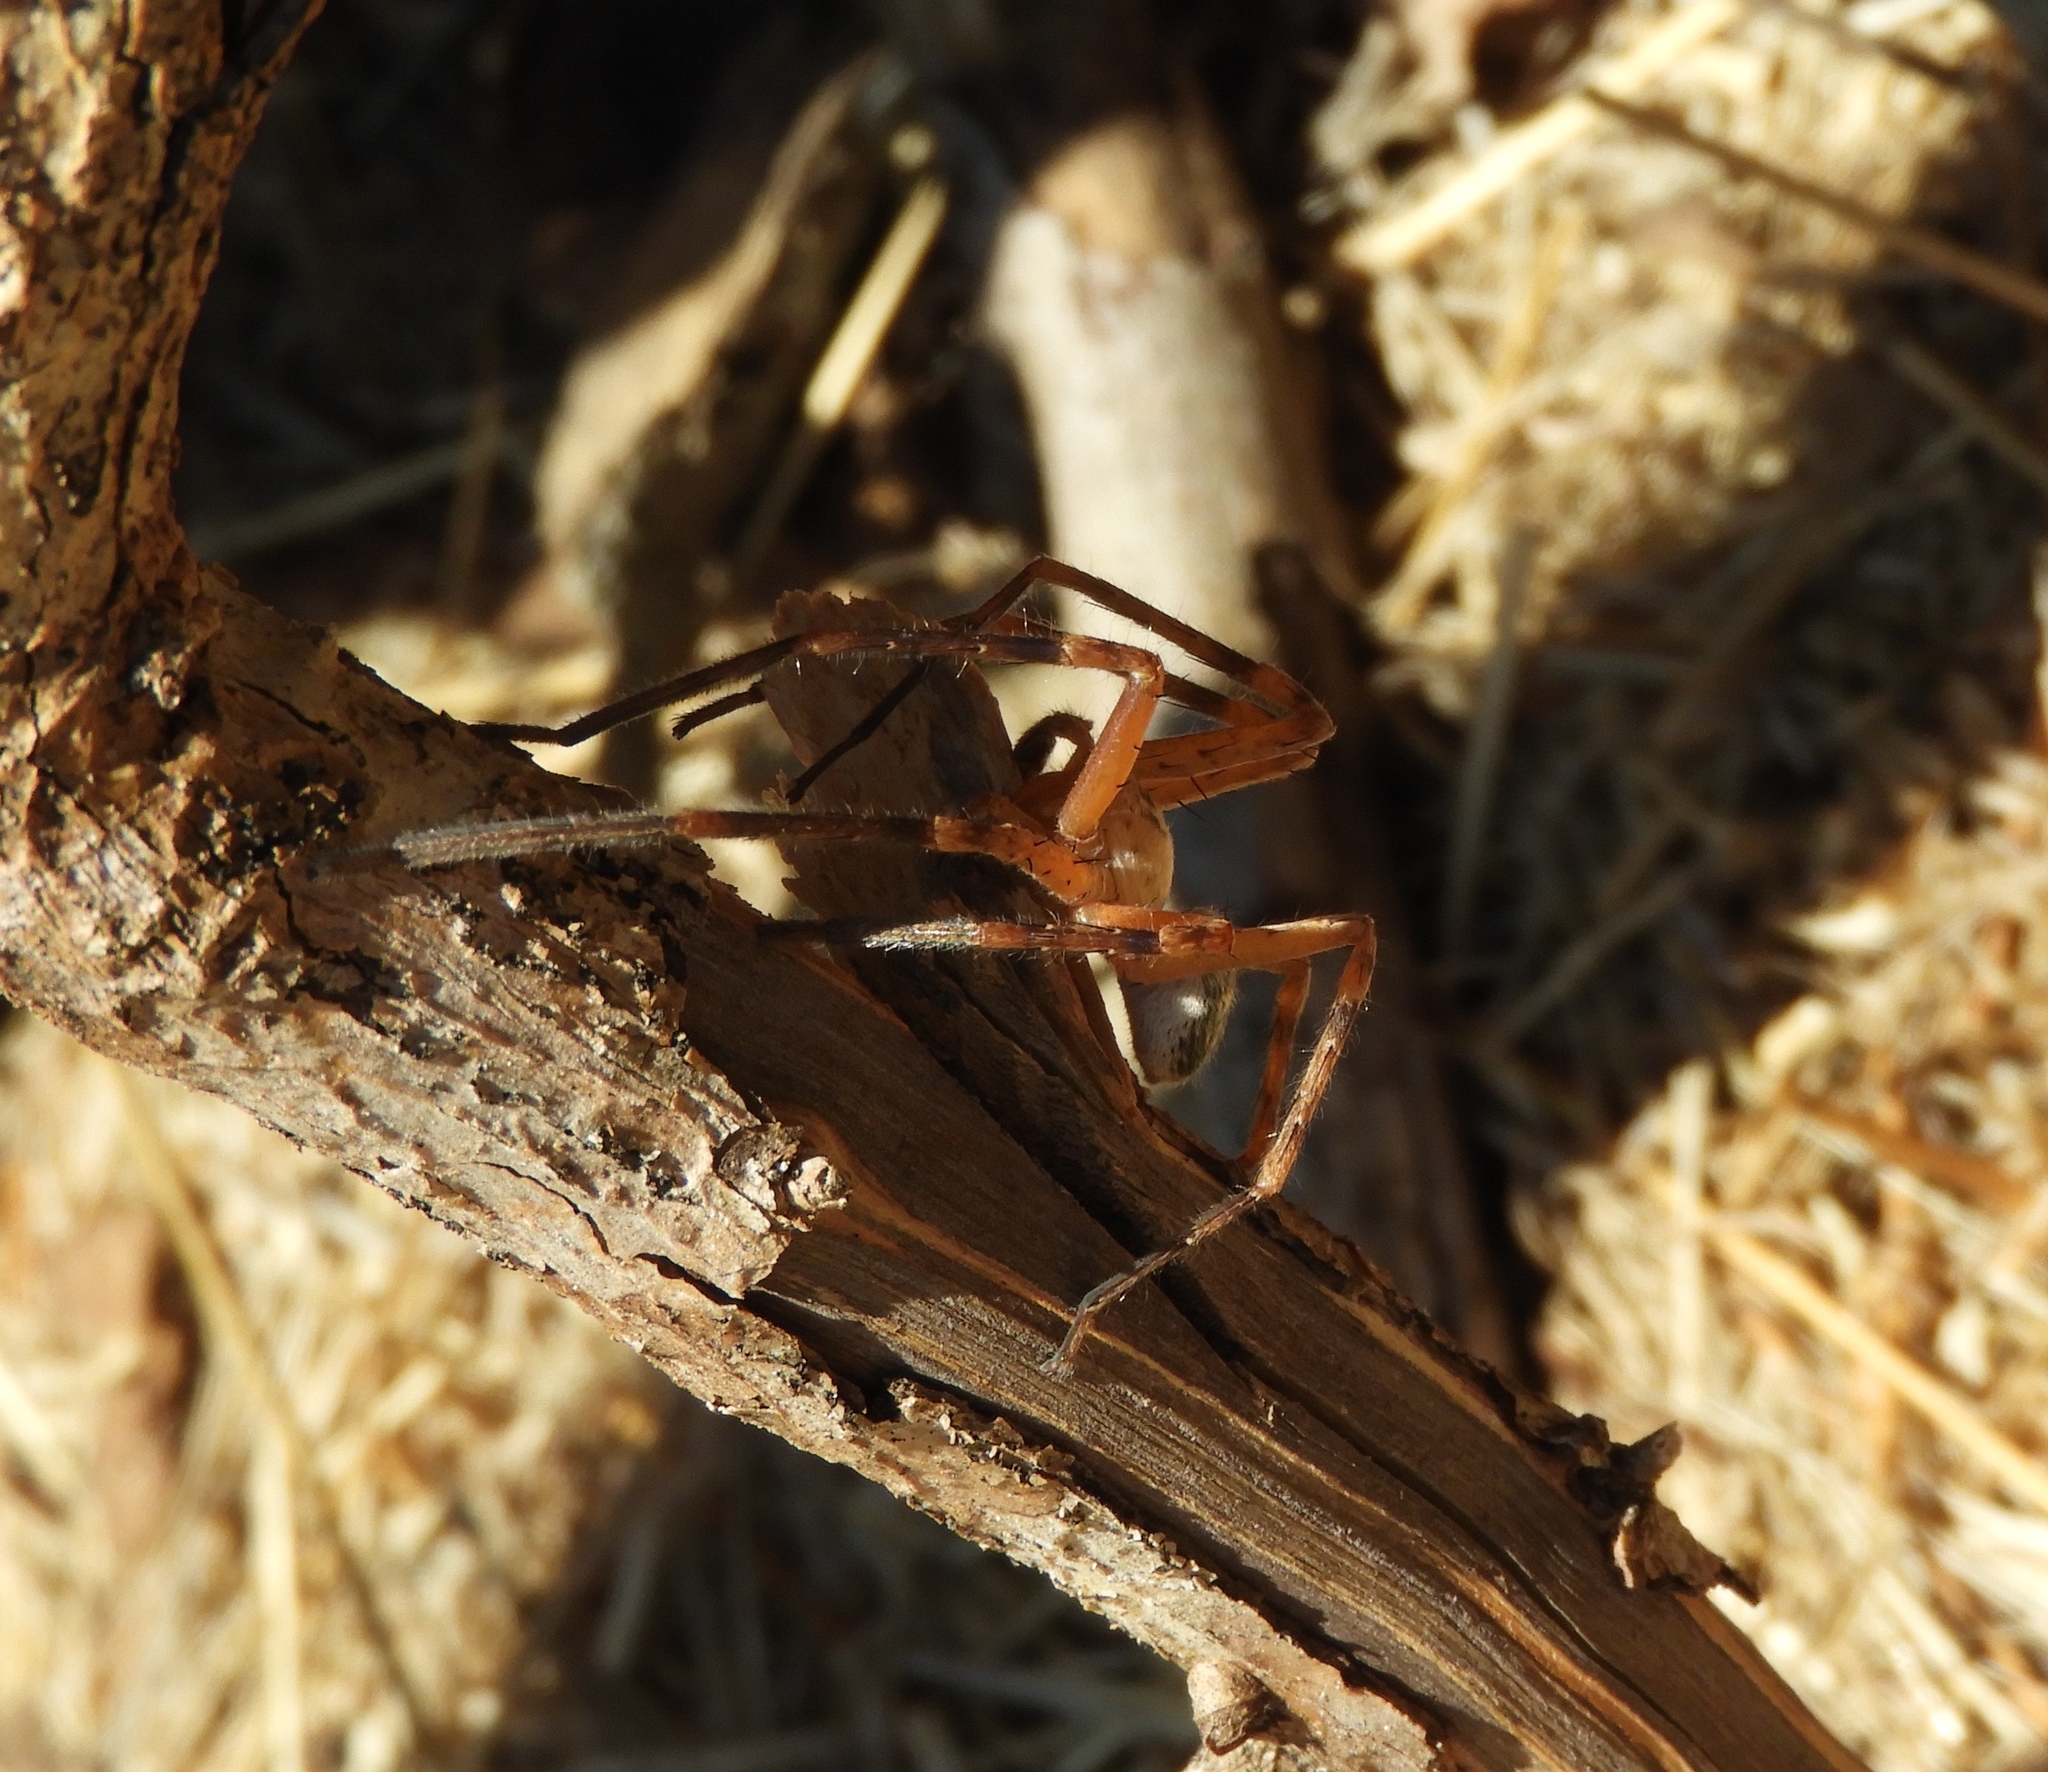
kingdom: Animalia
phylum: Arthropoda
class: Arachnida
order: Araneae
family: Sparassidae
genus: Curicaberis
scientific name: Curicaberis
